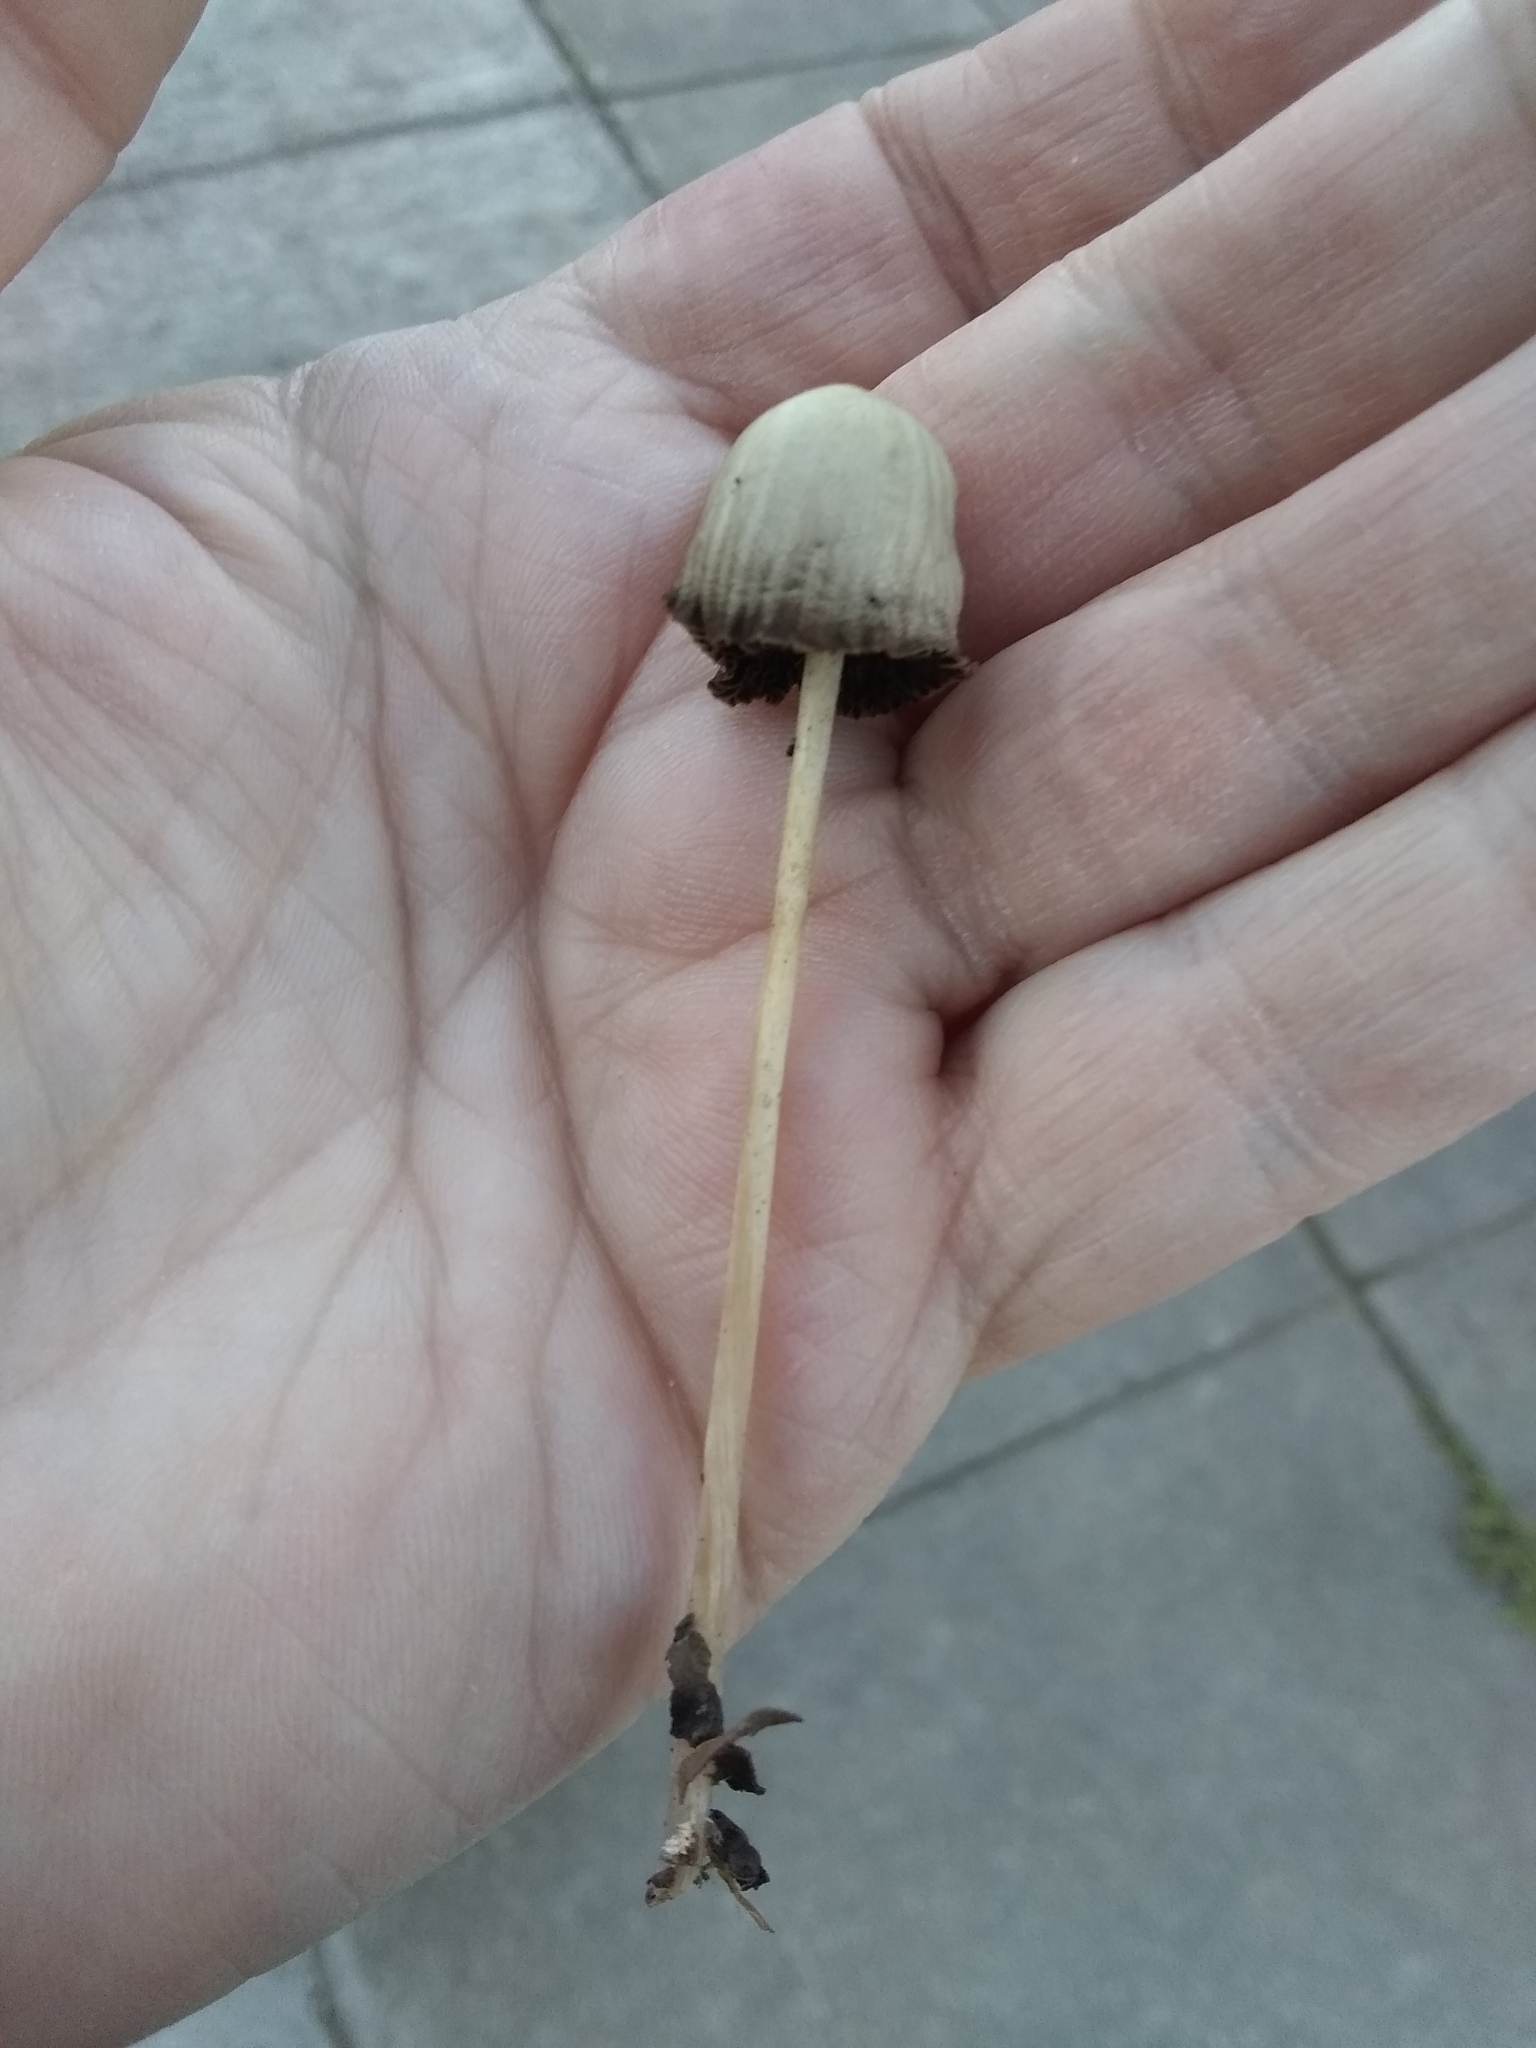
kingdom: Fungi
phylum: Basidiomycota
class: Agaricomycetes
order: Agaricales
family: Psathyrellaceae
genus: Psathyrella
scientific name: Psathyrella corrugis
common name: Red edge brittlestem
